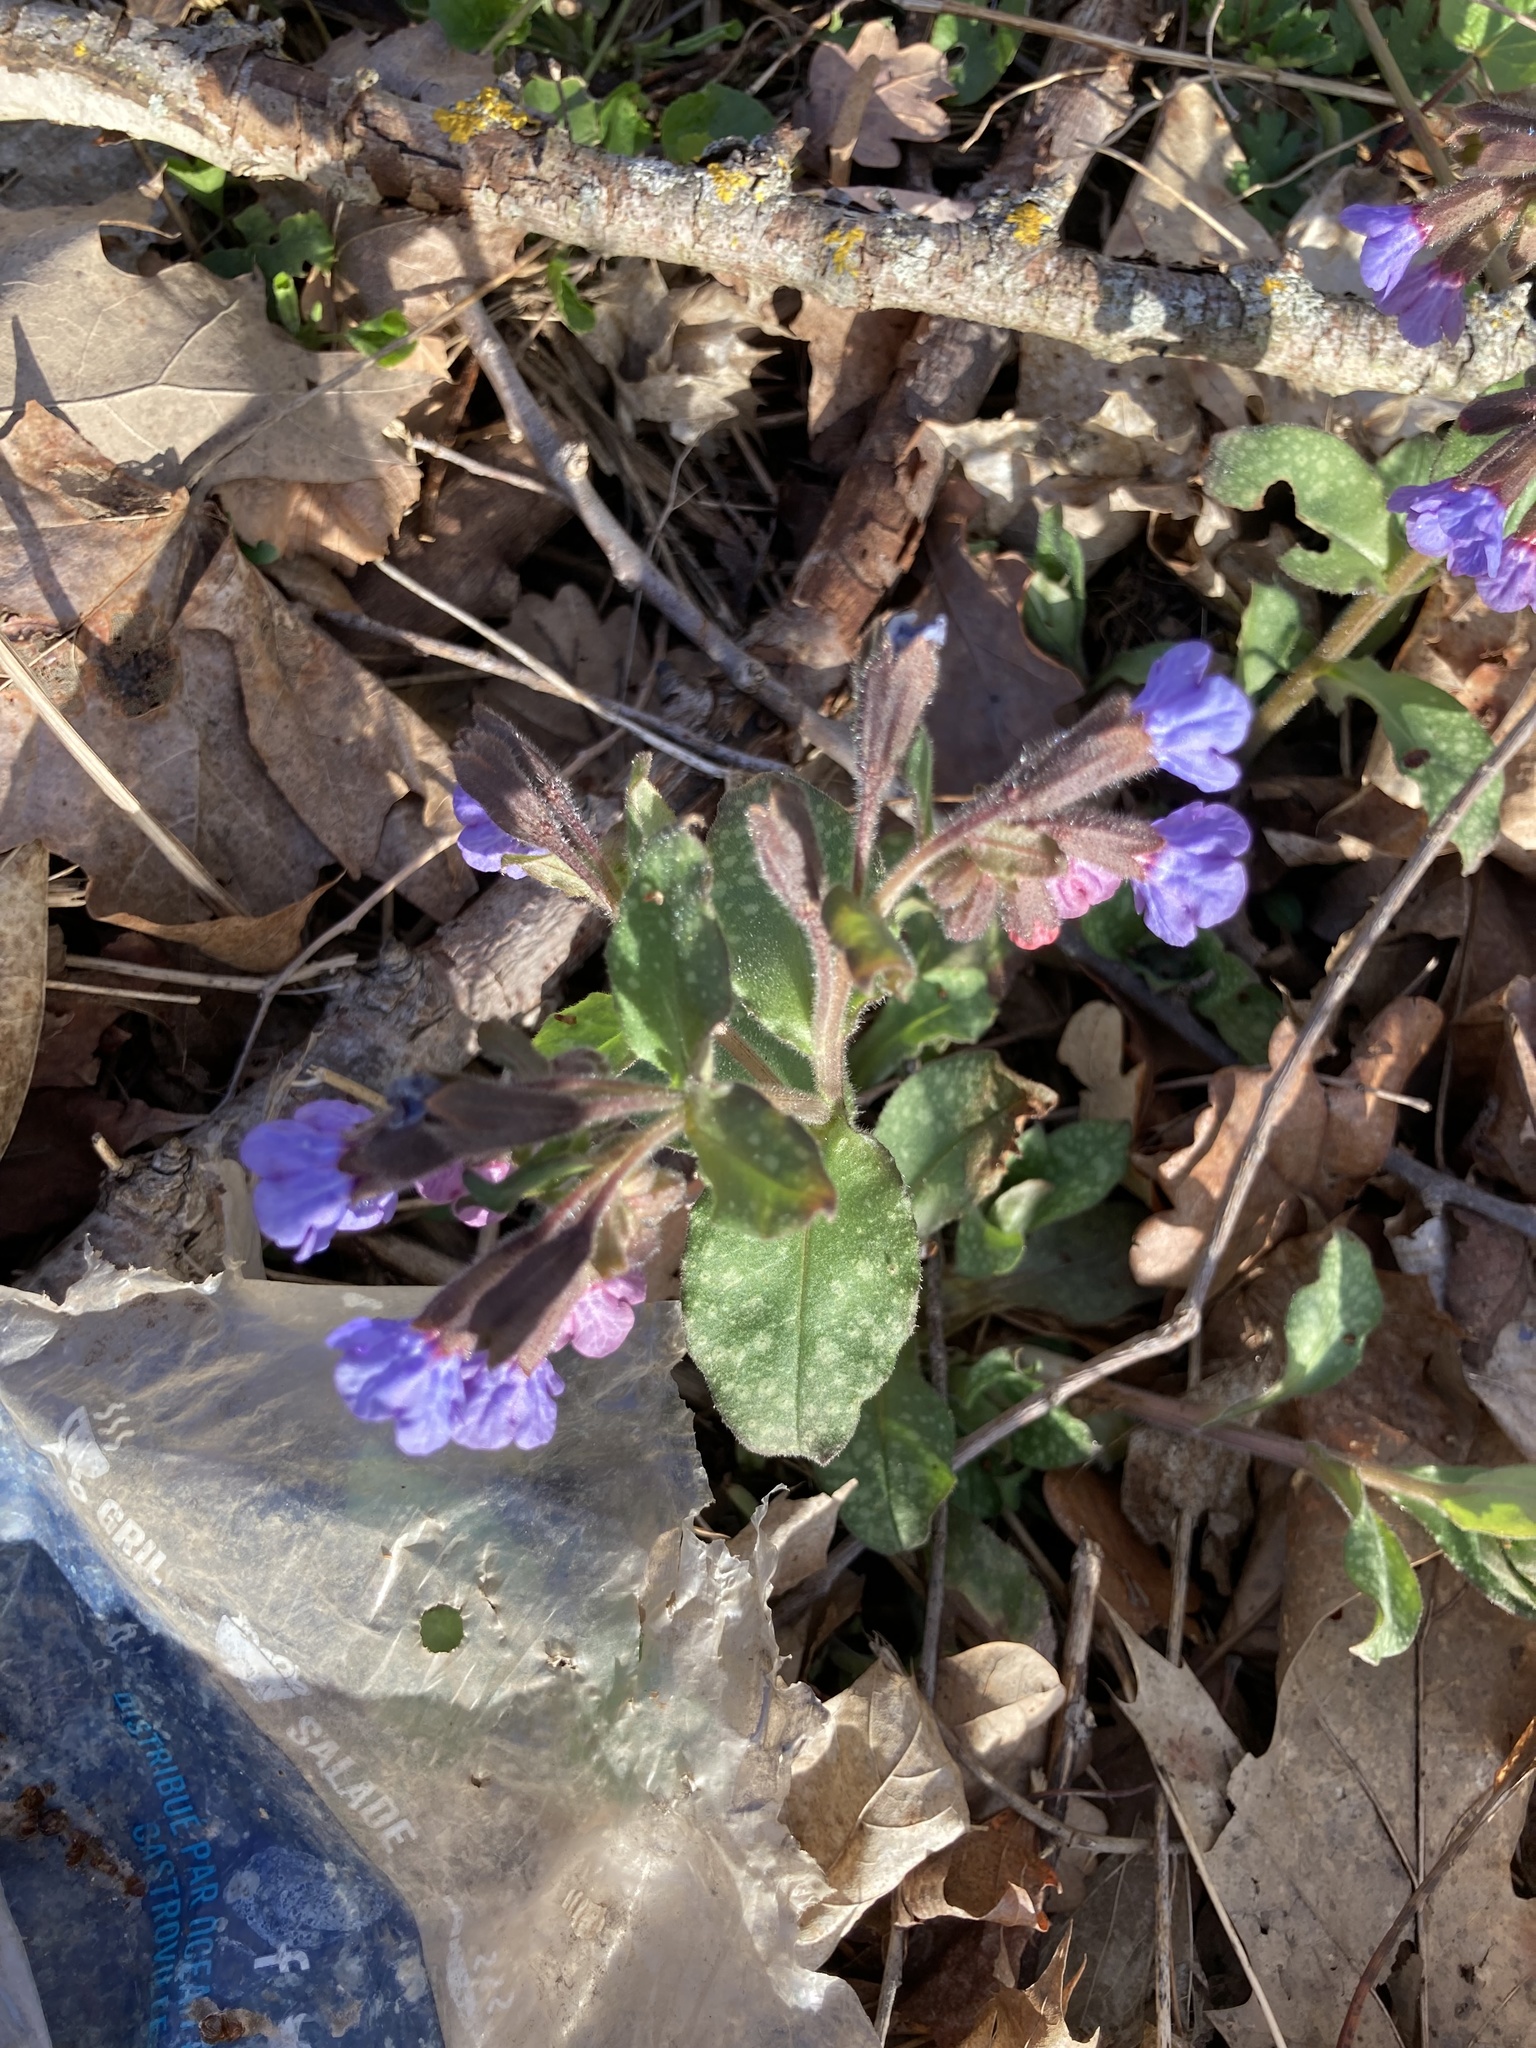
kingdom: Plantae
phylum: Tracheophyta
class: Magnoliopsida
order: Boraginales
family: Boraginaceae
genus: Pulmonaria
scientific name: Pulmonaria officinalis
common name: Lungwort
